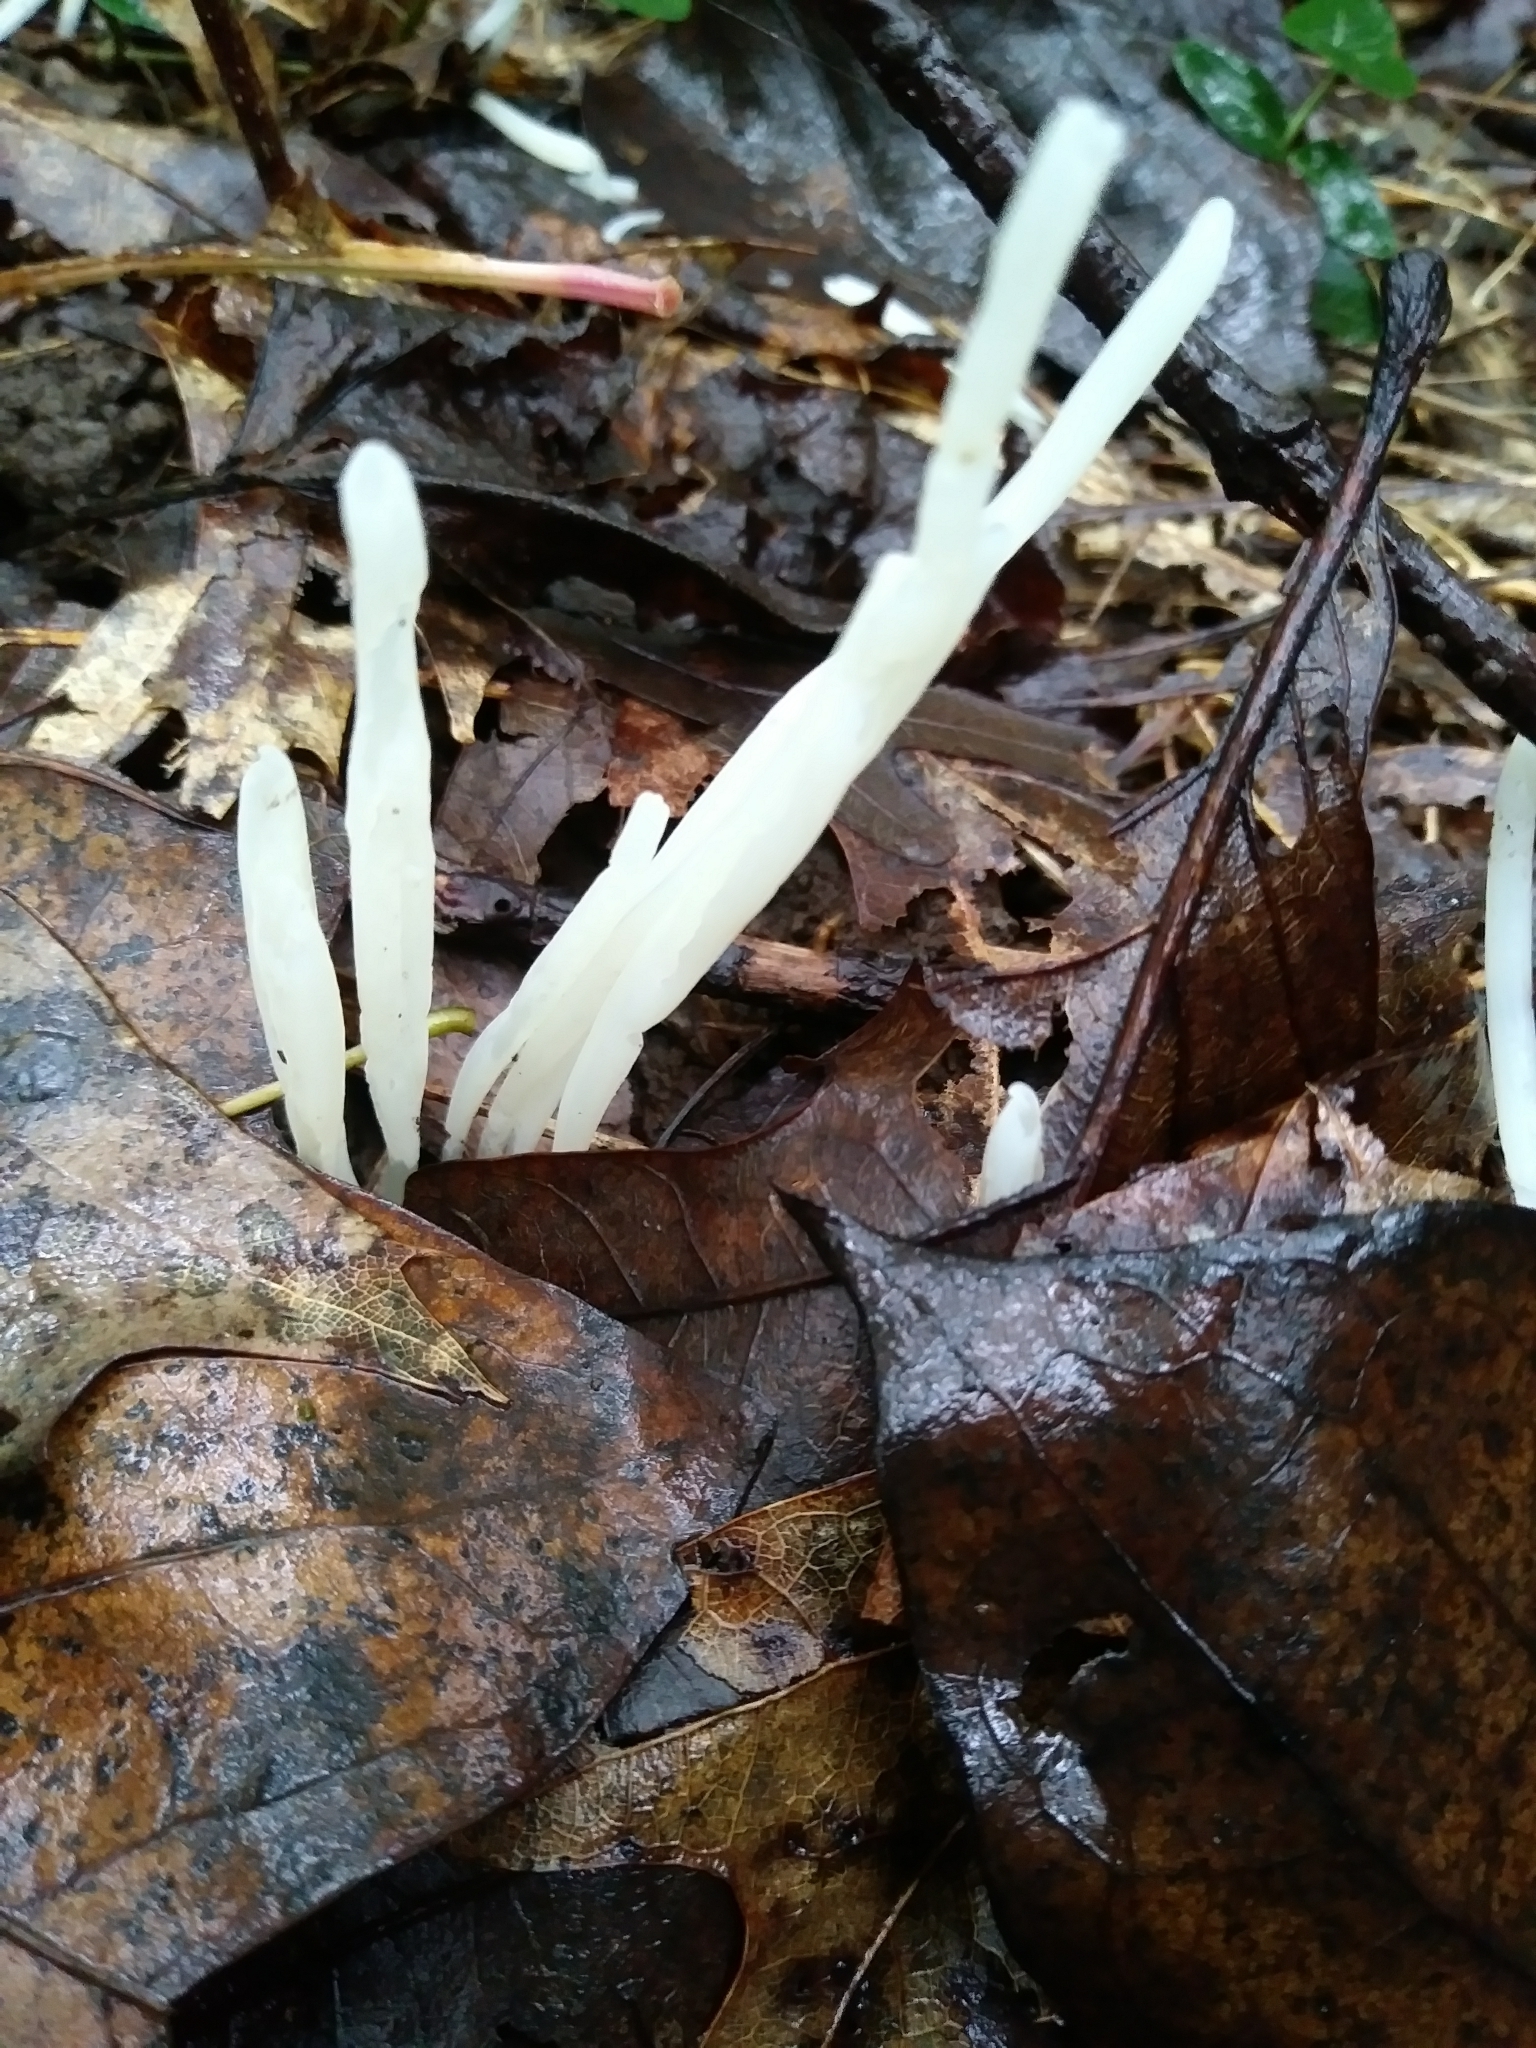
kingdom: Fungi
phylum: Basidiomycota
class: Agaricomycetes
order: Agaricales
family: Clavariaceae
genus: Clavaria
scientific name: Clavaria fragilis
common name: White spindles
